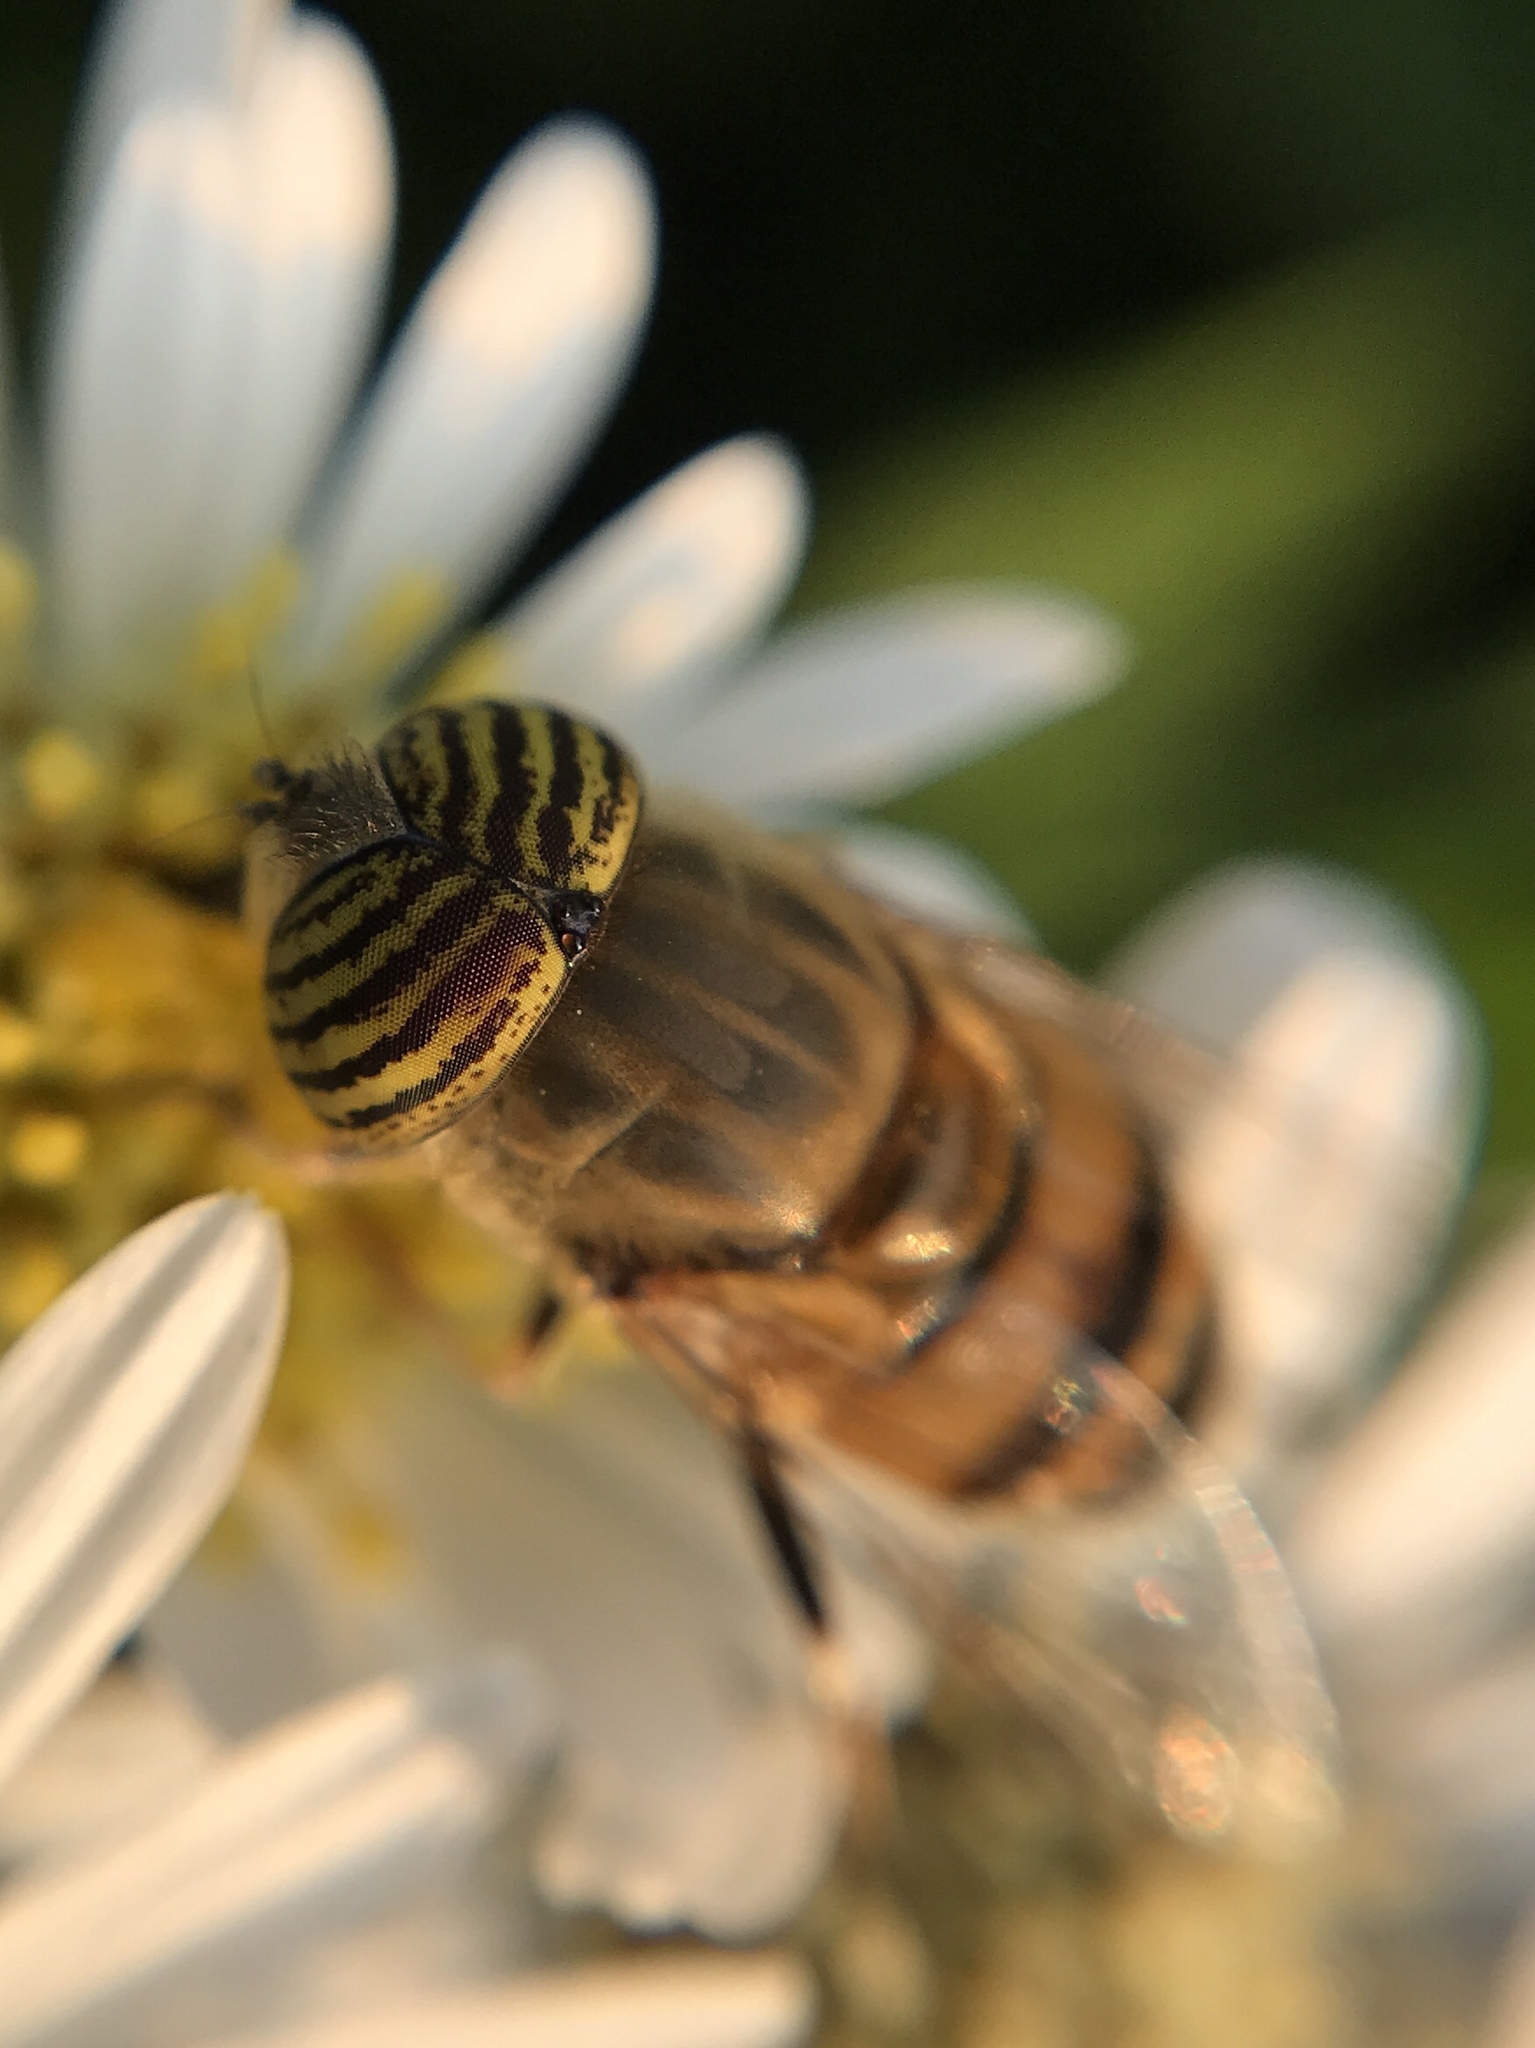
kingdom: Animalia
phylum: Arthropoda
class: Insecta
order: Diptera
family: Syrphidae
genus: Eristalinus
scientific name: Eristalinus taeniops
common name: Syrphid fly
